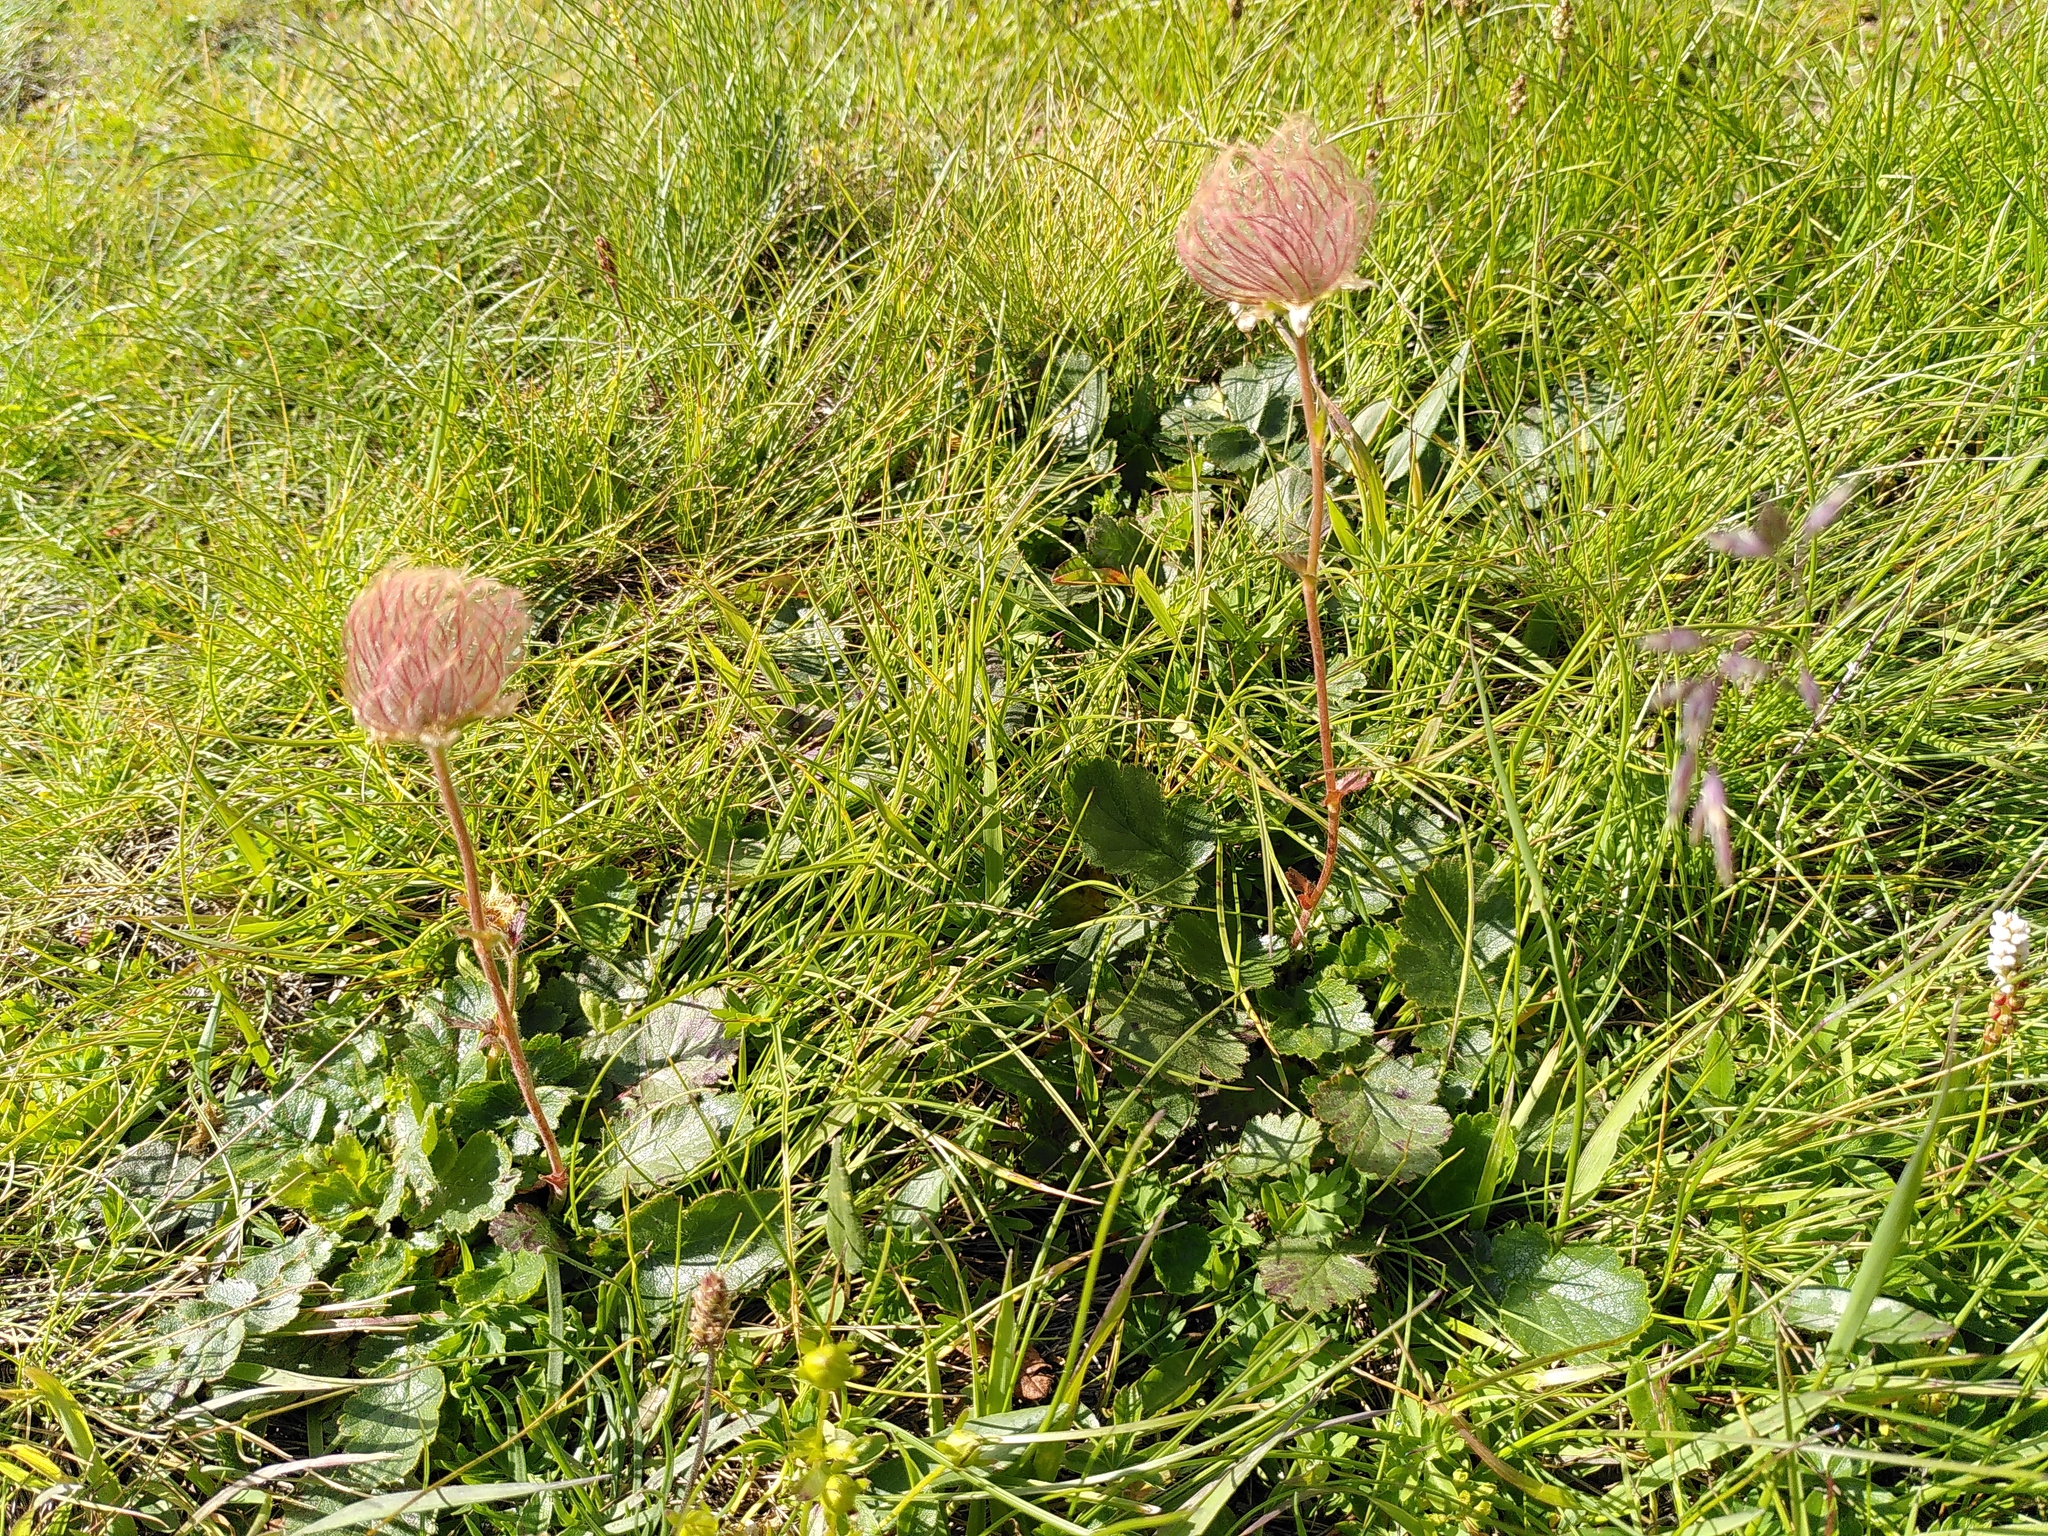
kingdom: Plantae
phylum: Tracheophyta
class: Magnoliopsida
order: Rosales
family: Rosaceae
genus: Geum
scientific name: Geum montanum
